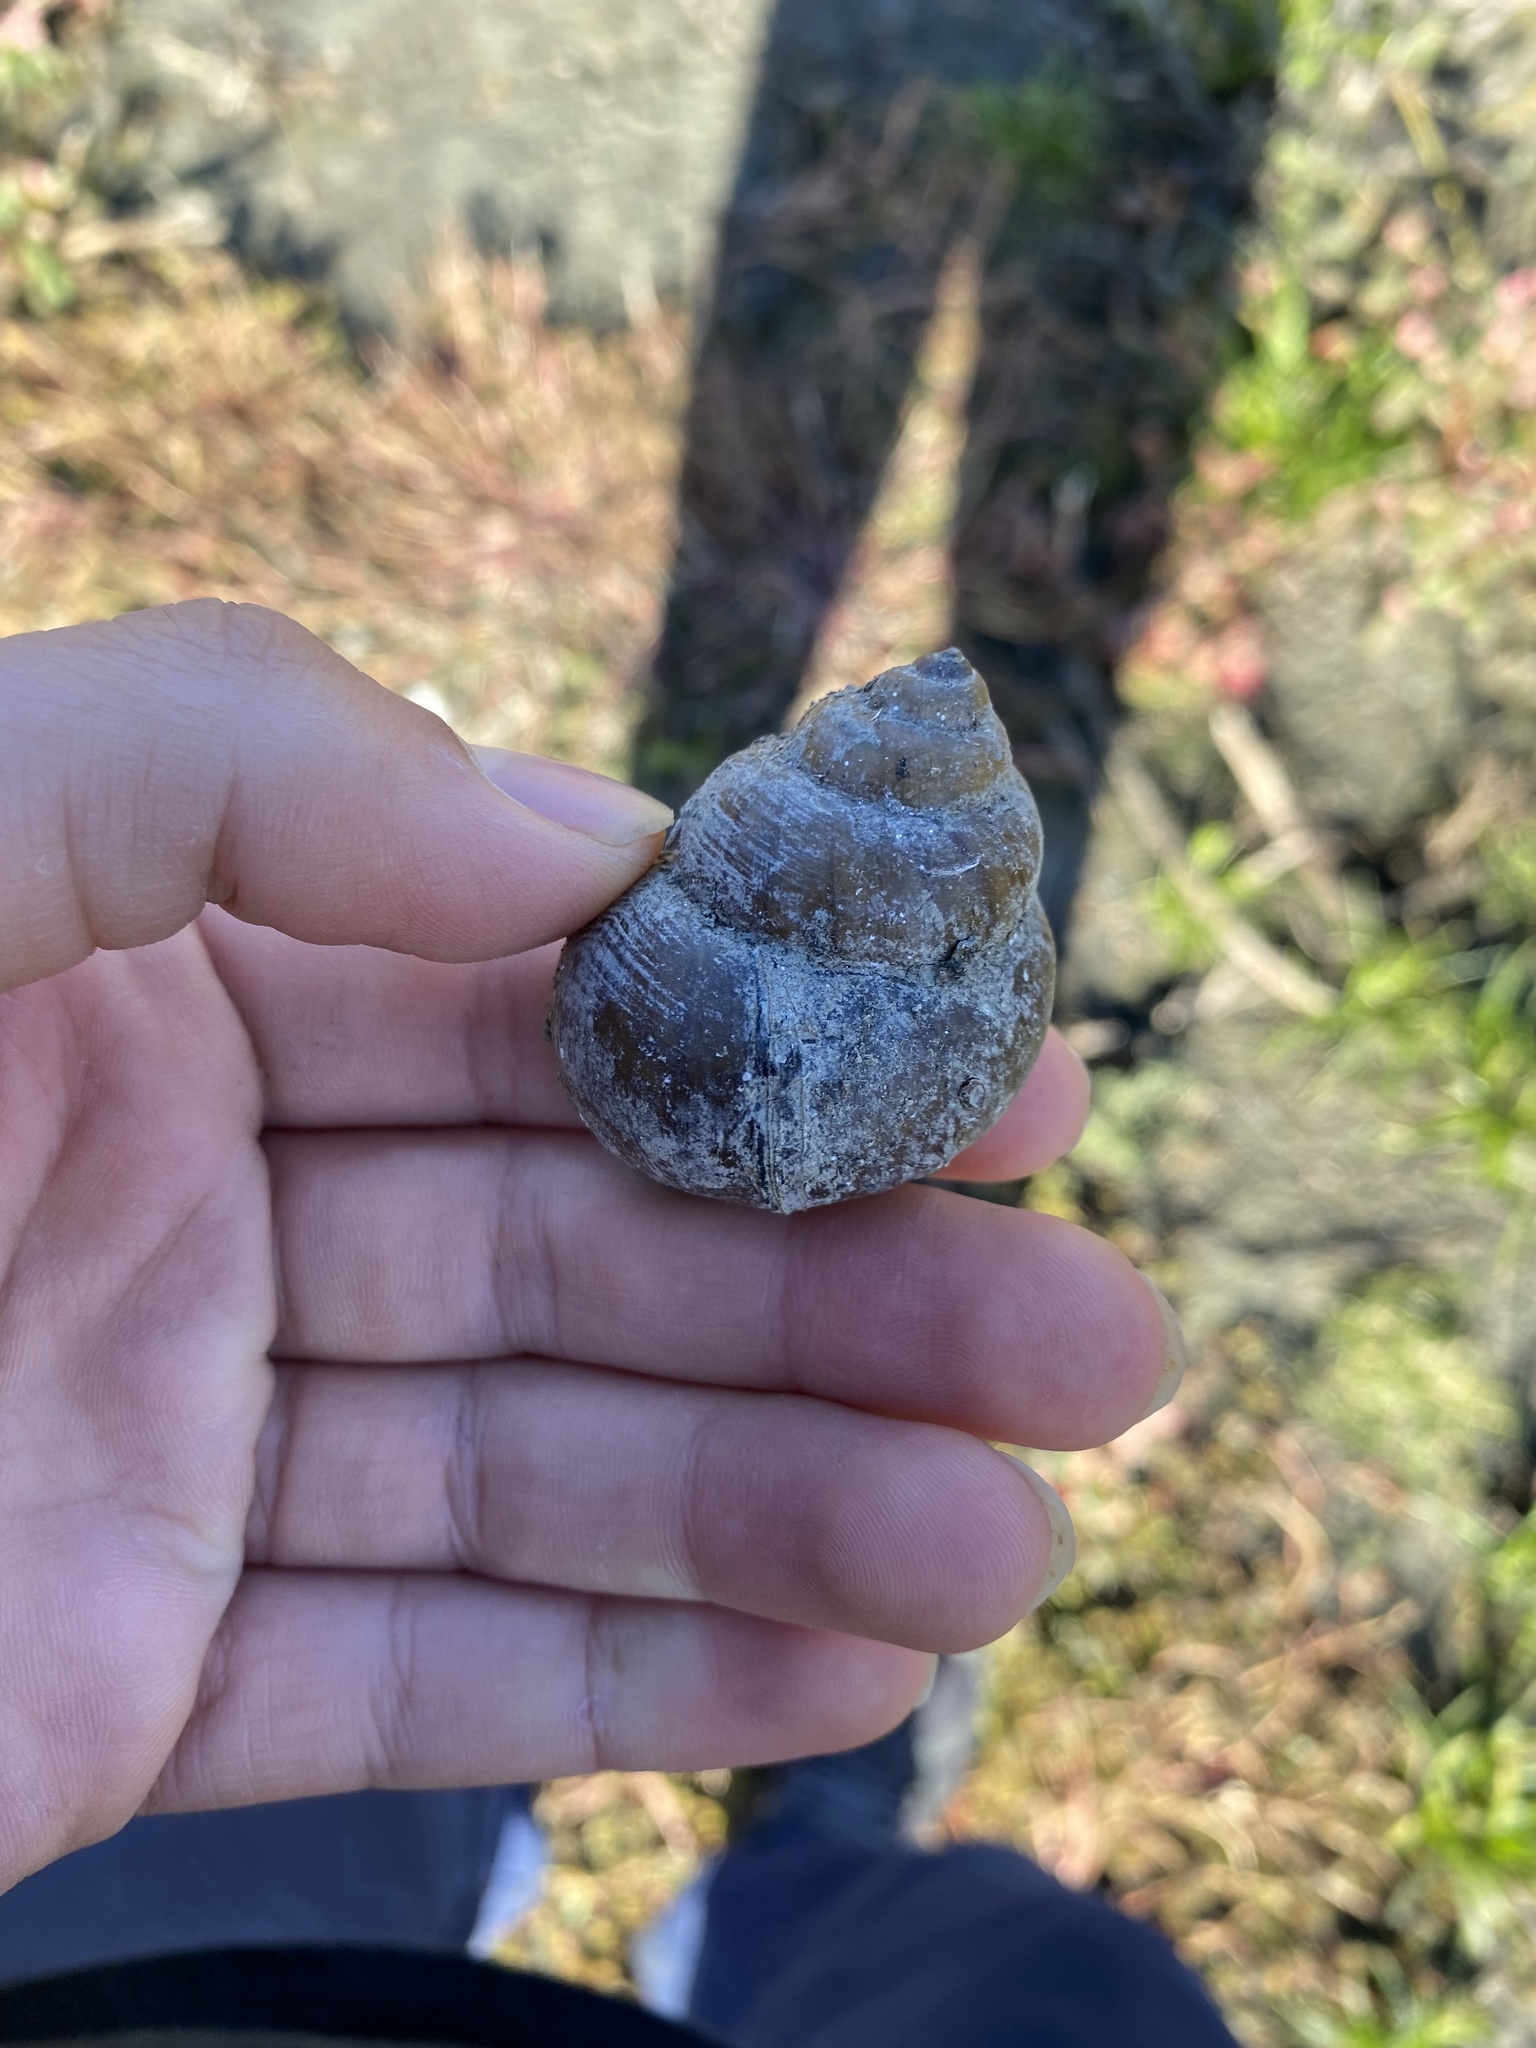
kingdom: Animalia
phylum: Mollusca
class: Gastropoda
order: Architaenioglossa
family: Viviparidae
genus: Cipangopaludina
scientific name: Cipangopaludina chinensis
